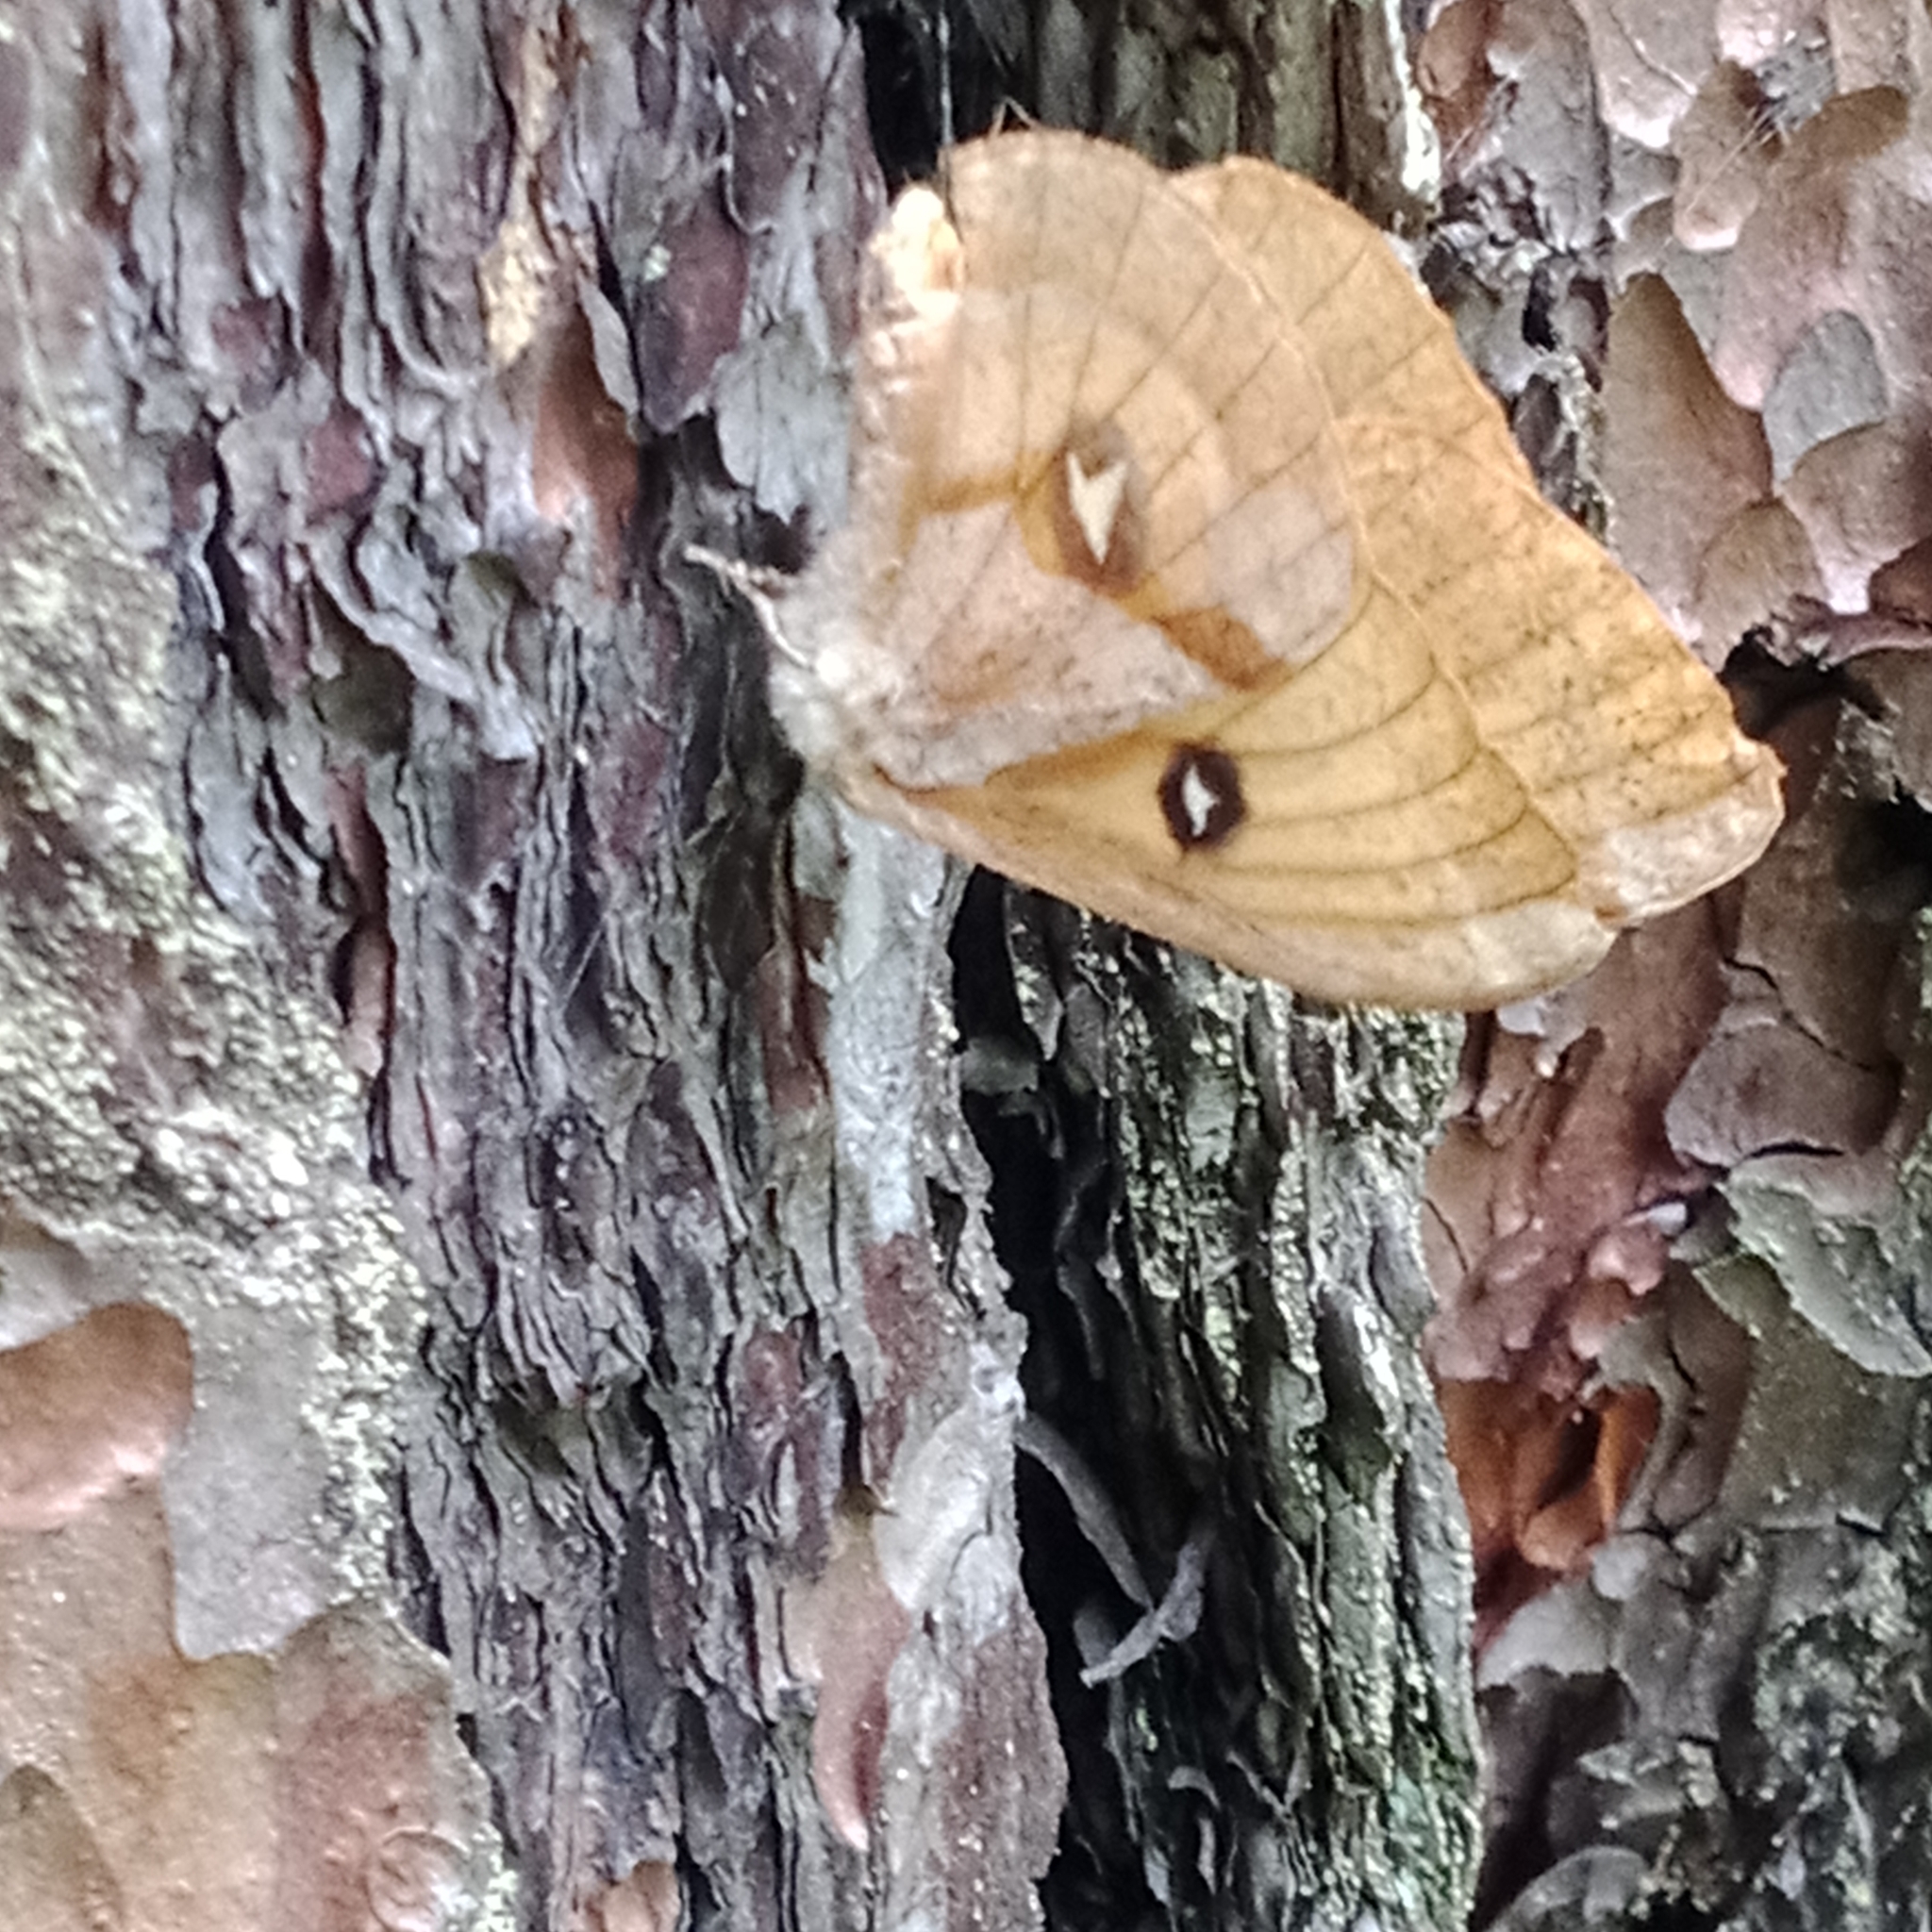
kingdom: Animalia
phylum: Arthropoda
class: Insecta
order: Lepidoptera
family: Saturniidae
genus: Aglia
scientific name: Aglia tau
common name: Tau emperor
